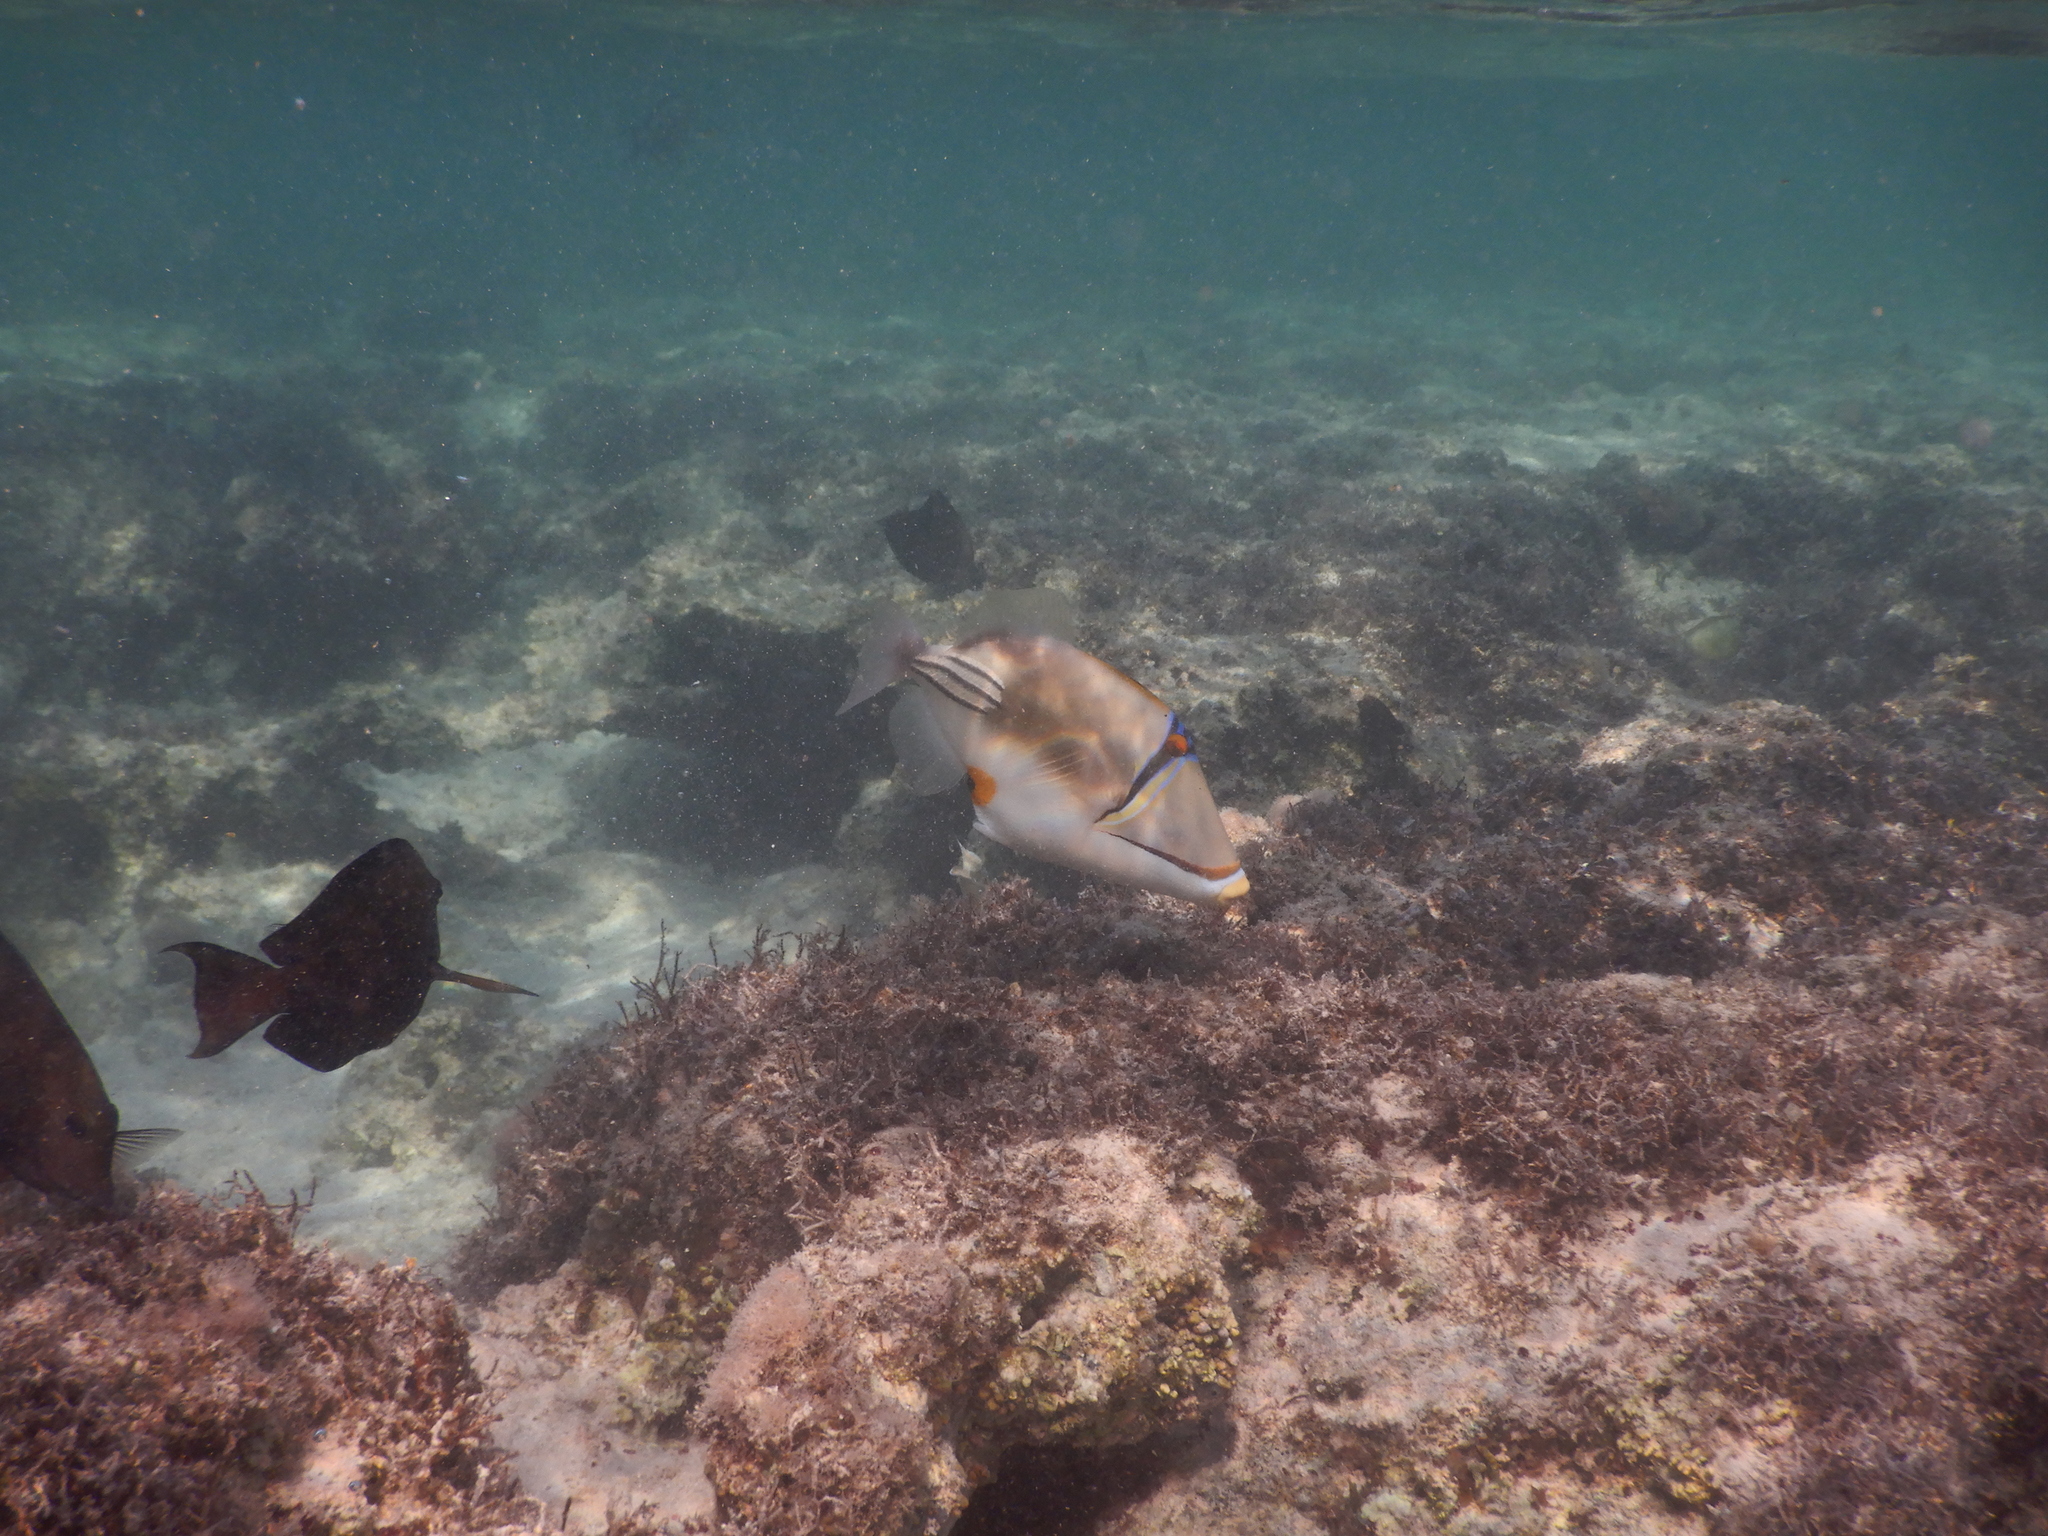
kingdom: Animalia
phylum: Chordata
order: Tetraodontiformes
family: Balistidae
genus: Rhinecanthus
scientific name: Rhinecanthus assasi
